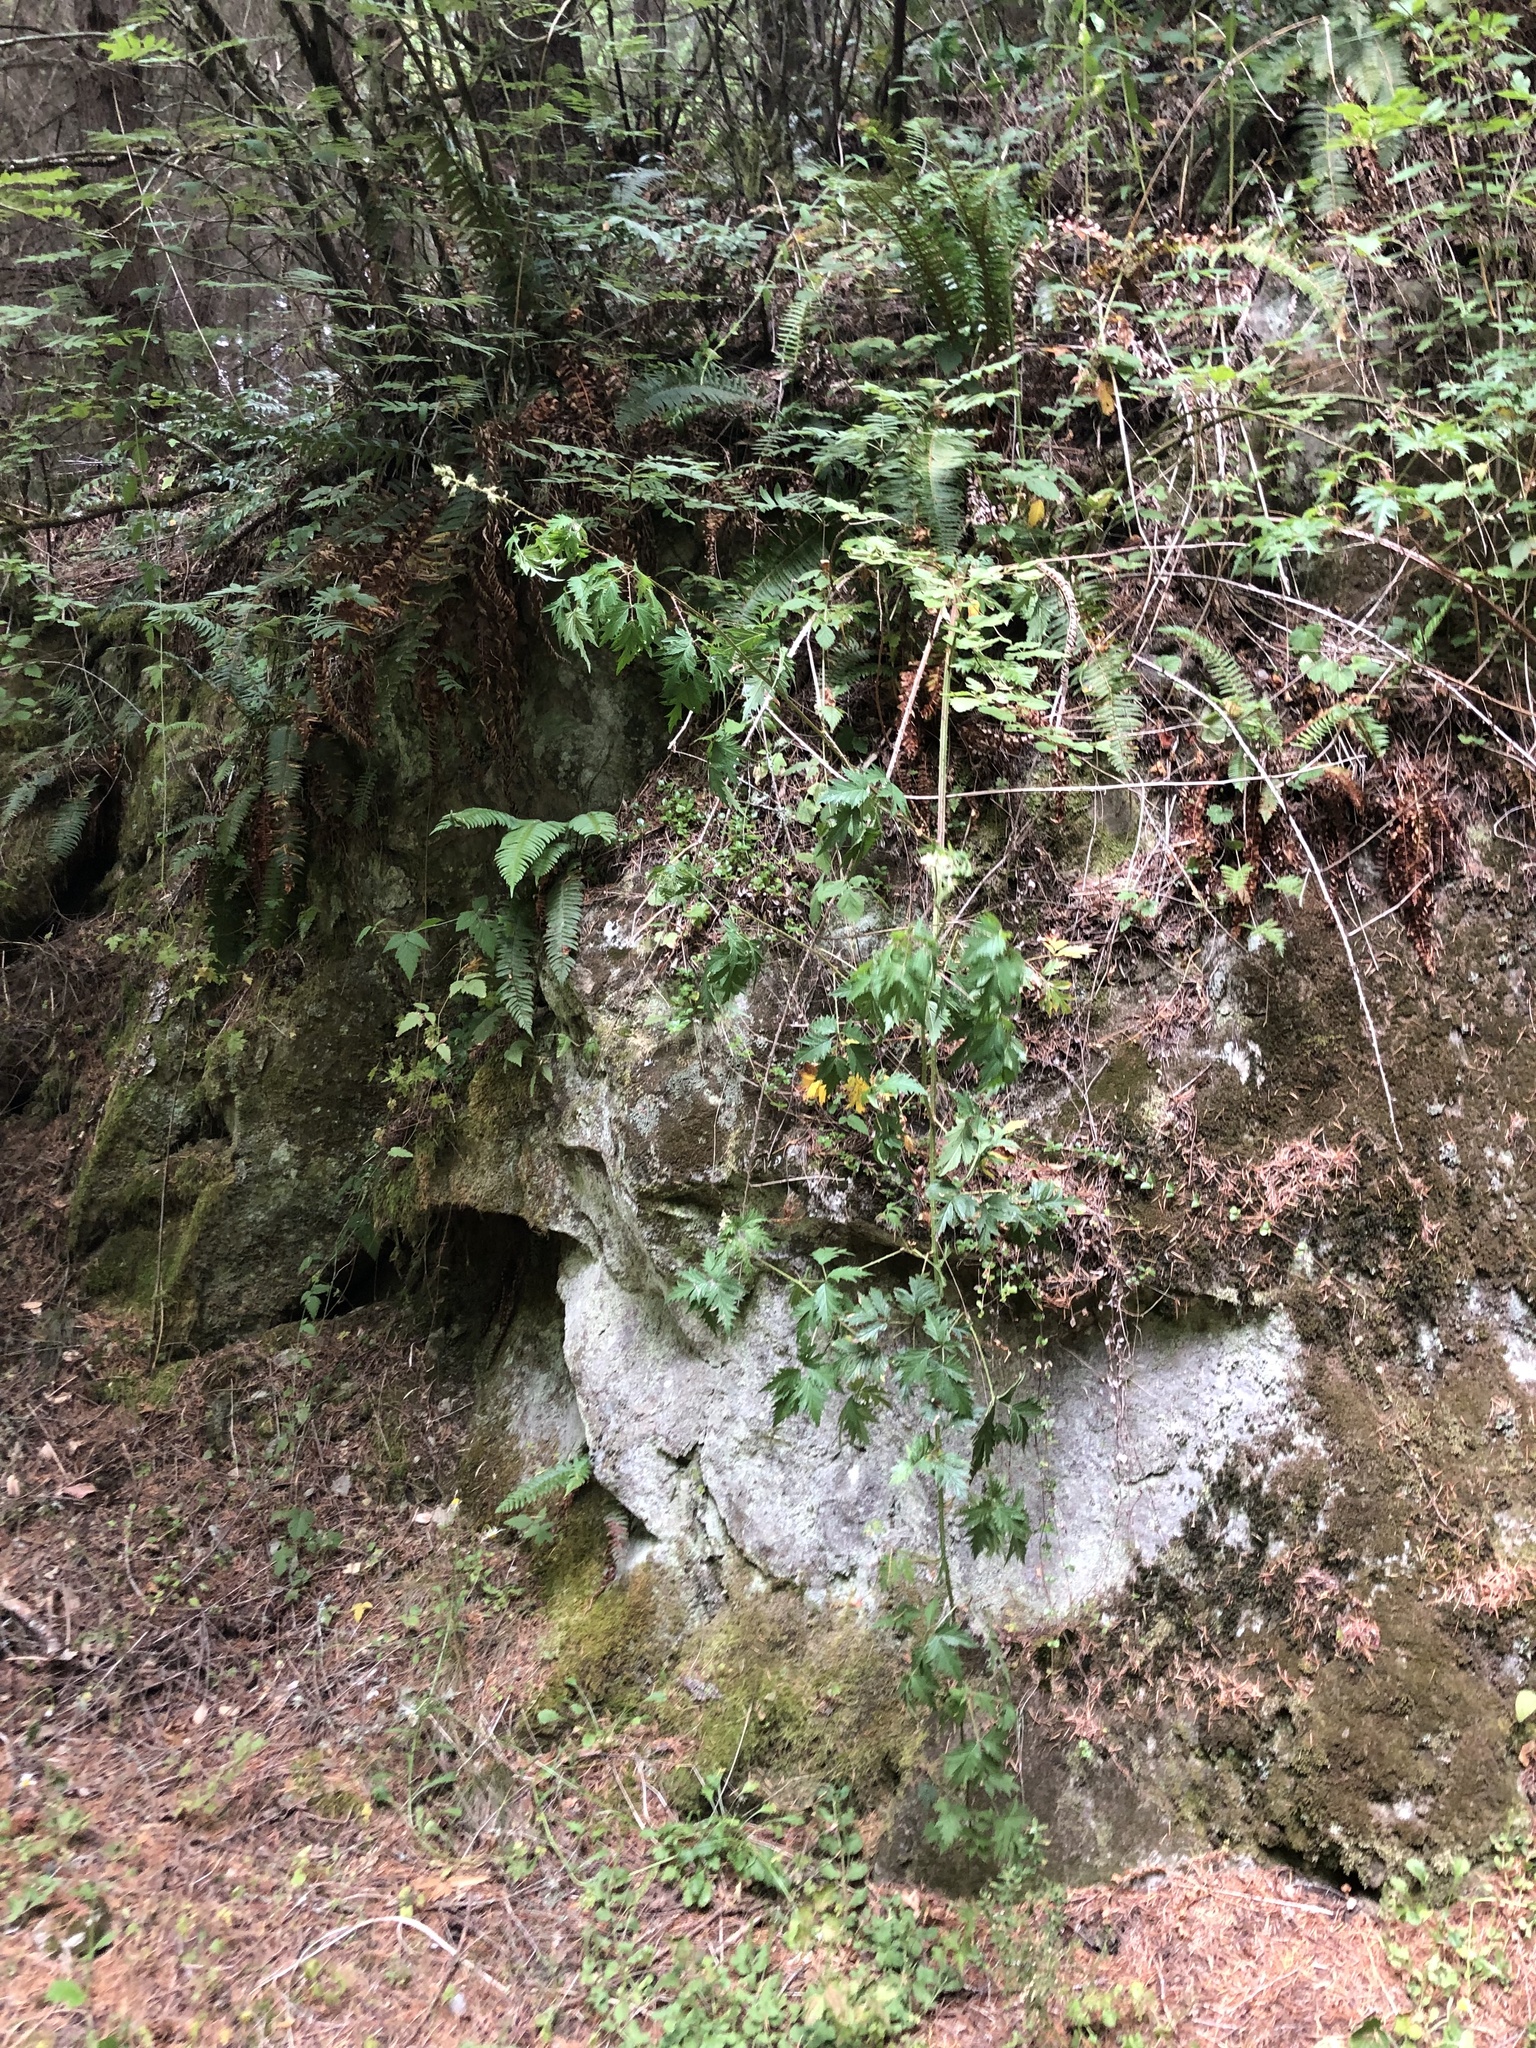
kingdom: Plantae
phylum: Tracheophyta
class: Magnoliopsida
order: Rosales
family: Rosaceae
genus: Rubus
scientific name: Rubus laciniatus
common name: Evergreen blackberry
